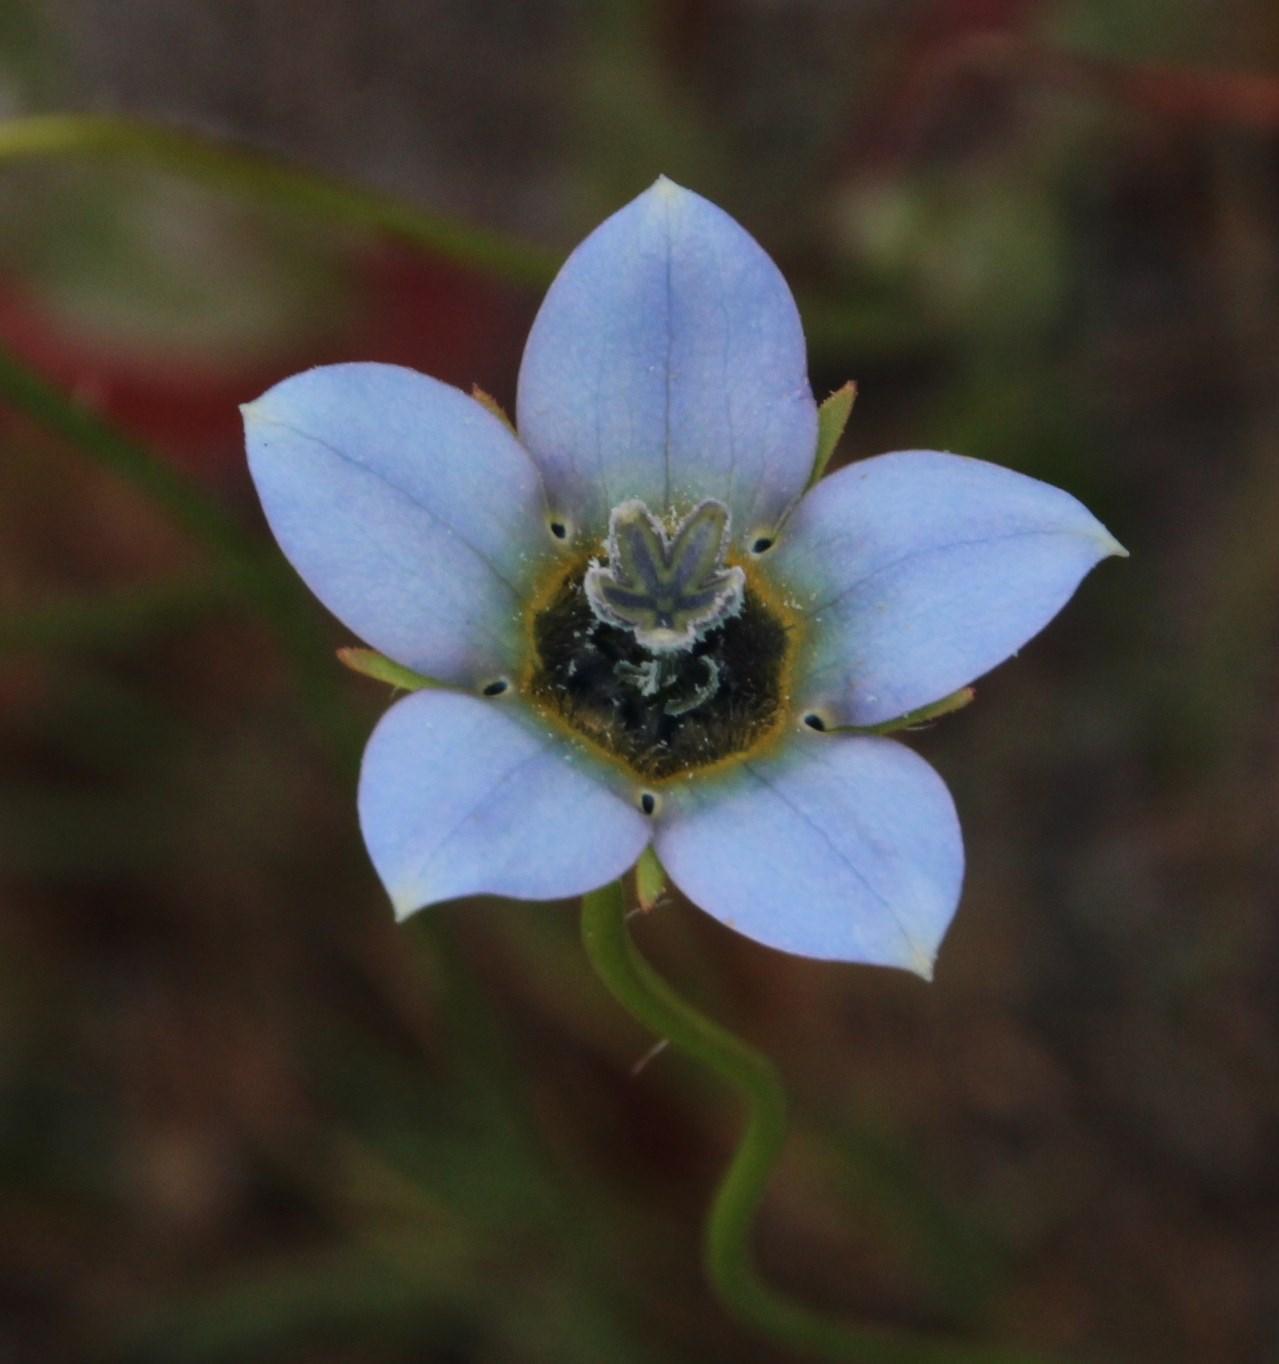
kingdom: Plantae
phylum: Tracheophyta
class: Magnoliopsida
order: Asterales
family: Campanulaceae
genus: Wahlenbergia
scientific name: Wahlenbergia capensis
